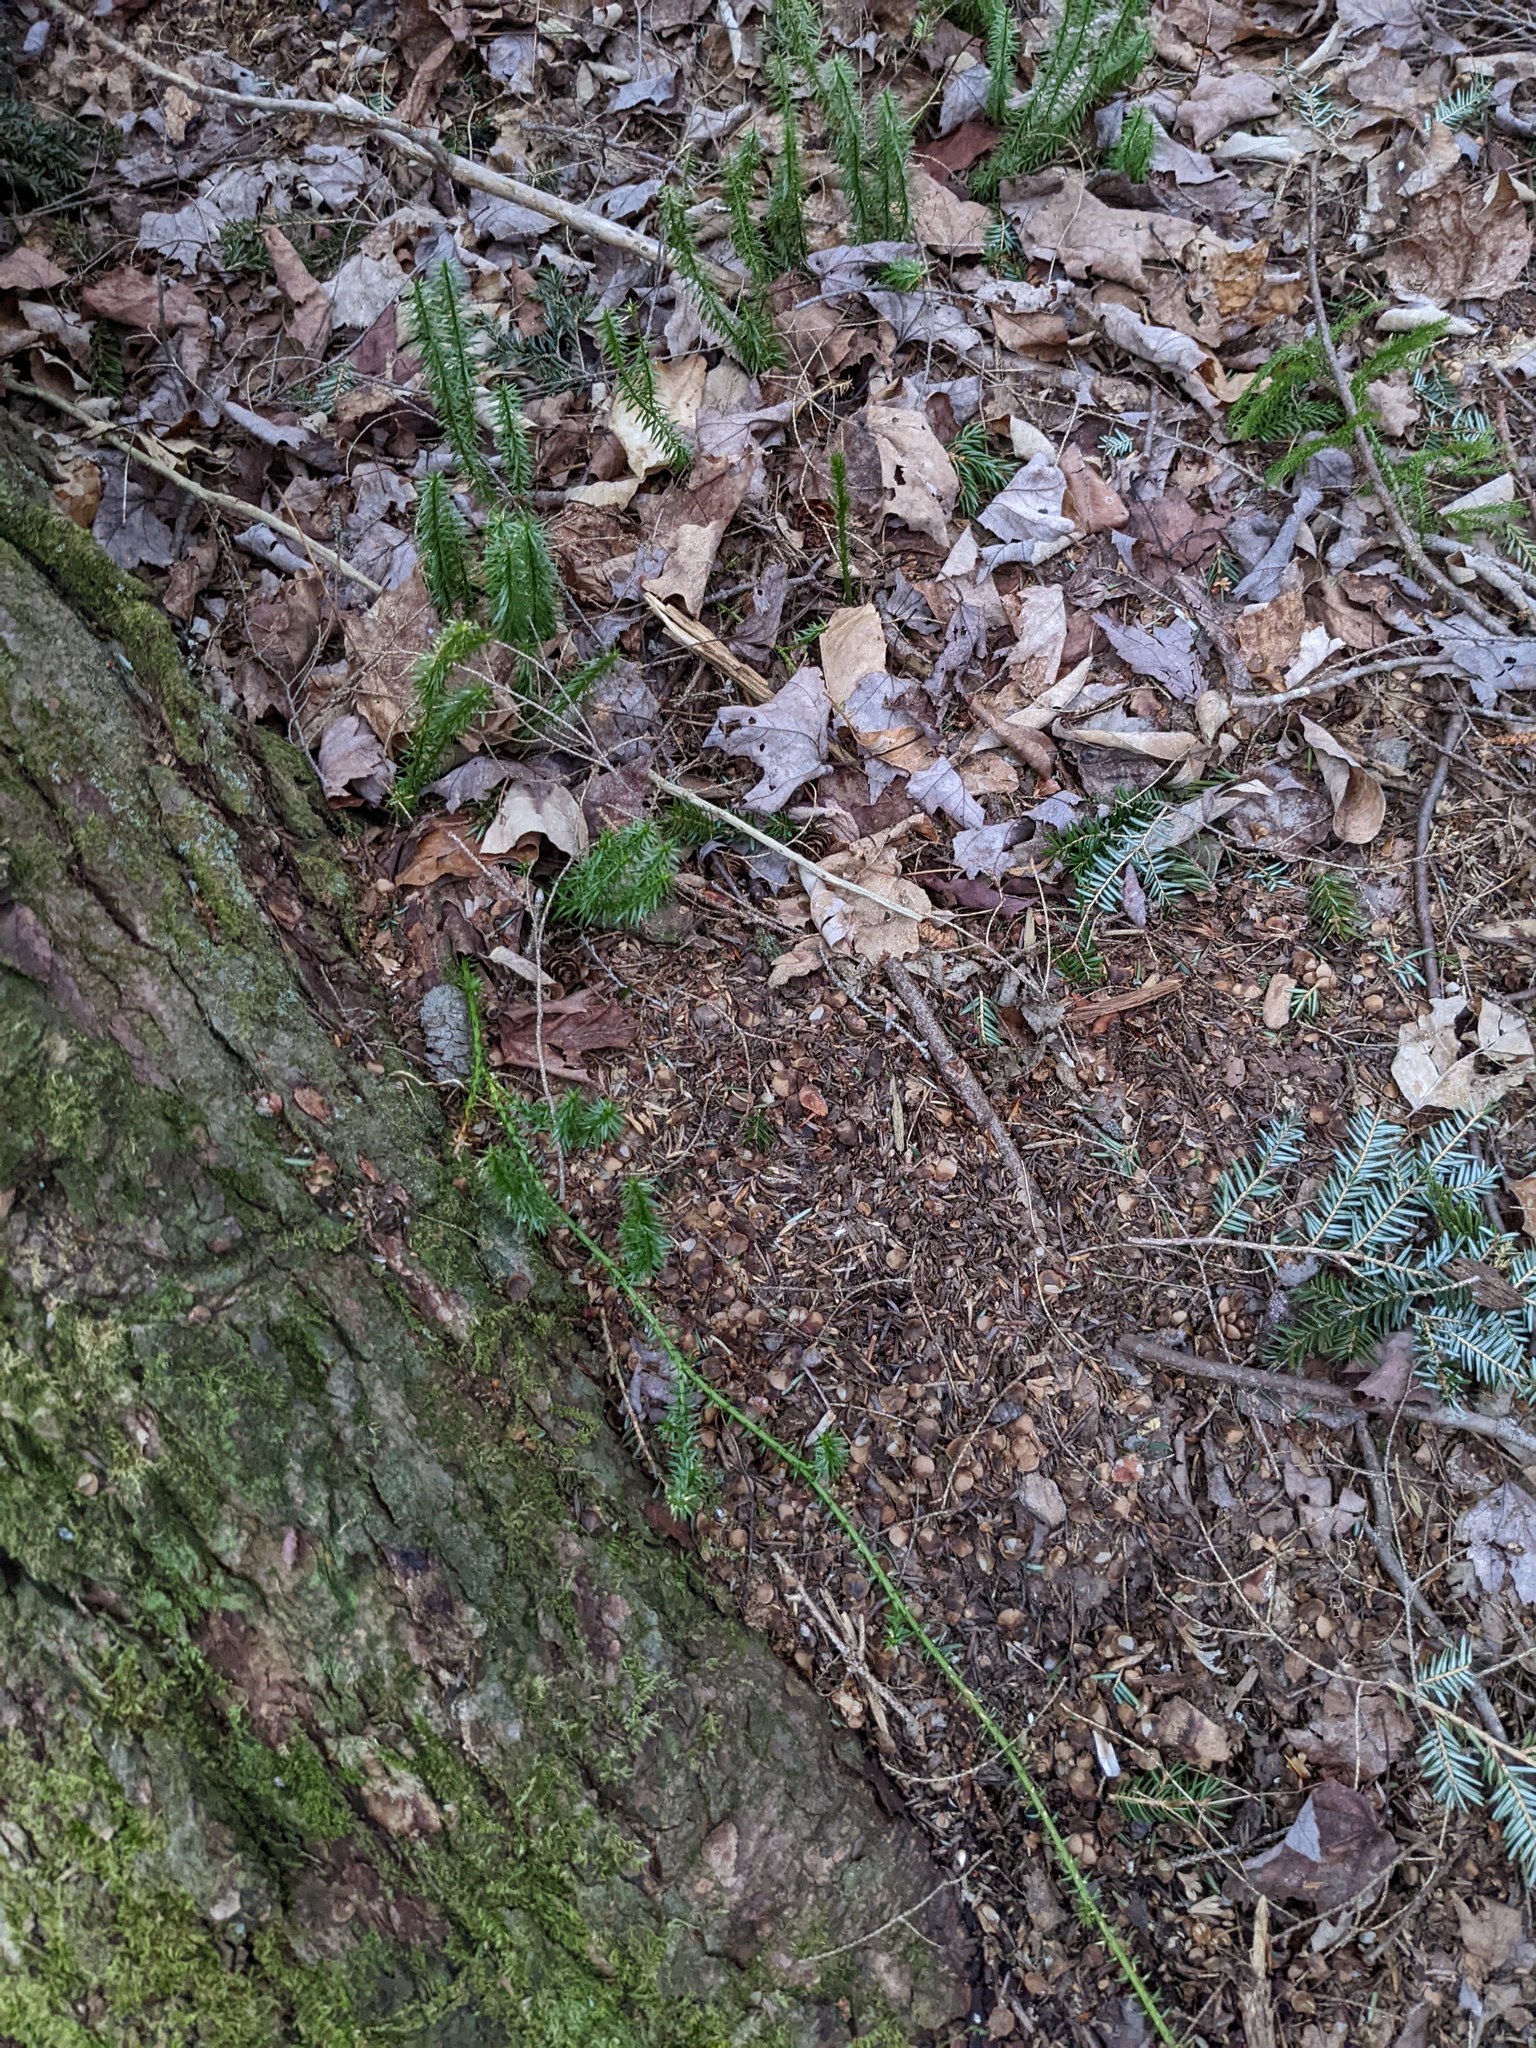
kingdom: Plantae
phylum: Tracheophyta
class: Lycopodiopsida
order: Lycopodiales
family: Lycopodiaceae
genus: Spinulum
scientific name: Spinulum annotinum
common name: Interrupted club-moss
